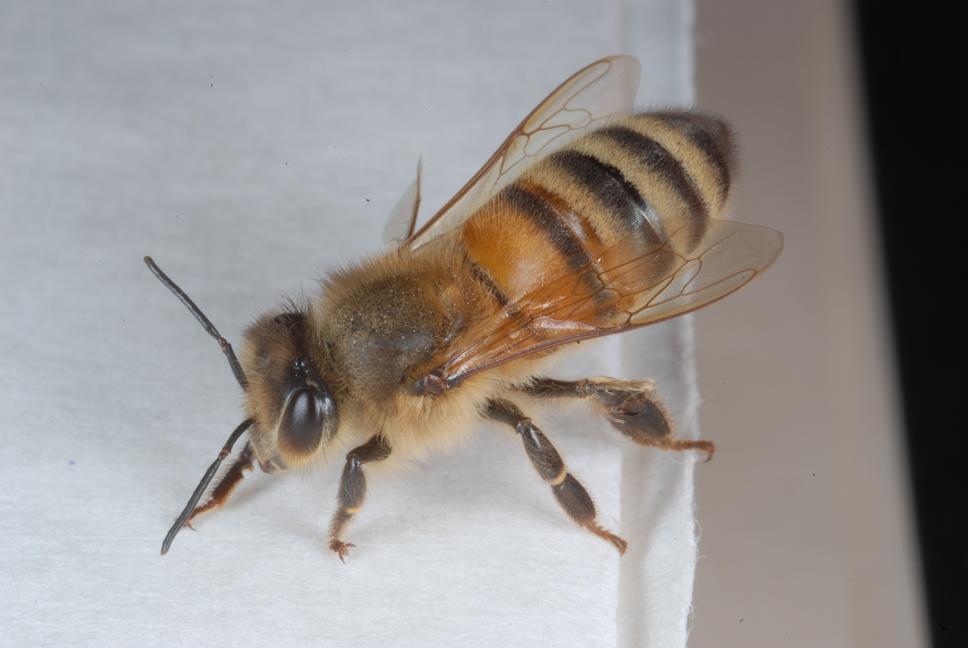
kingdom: Animalia
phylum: Arthropoda
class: Insecta
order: Hymenoptera
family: Apidae
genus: Apis
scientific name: Apis mellifera
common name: Honey bee
